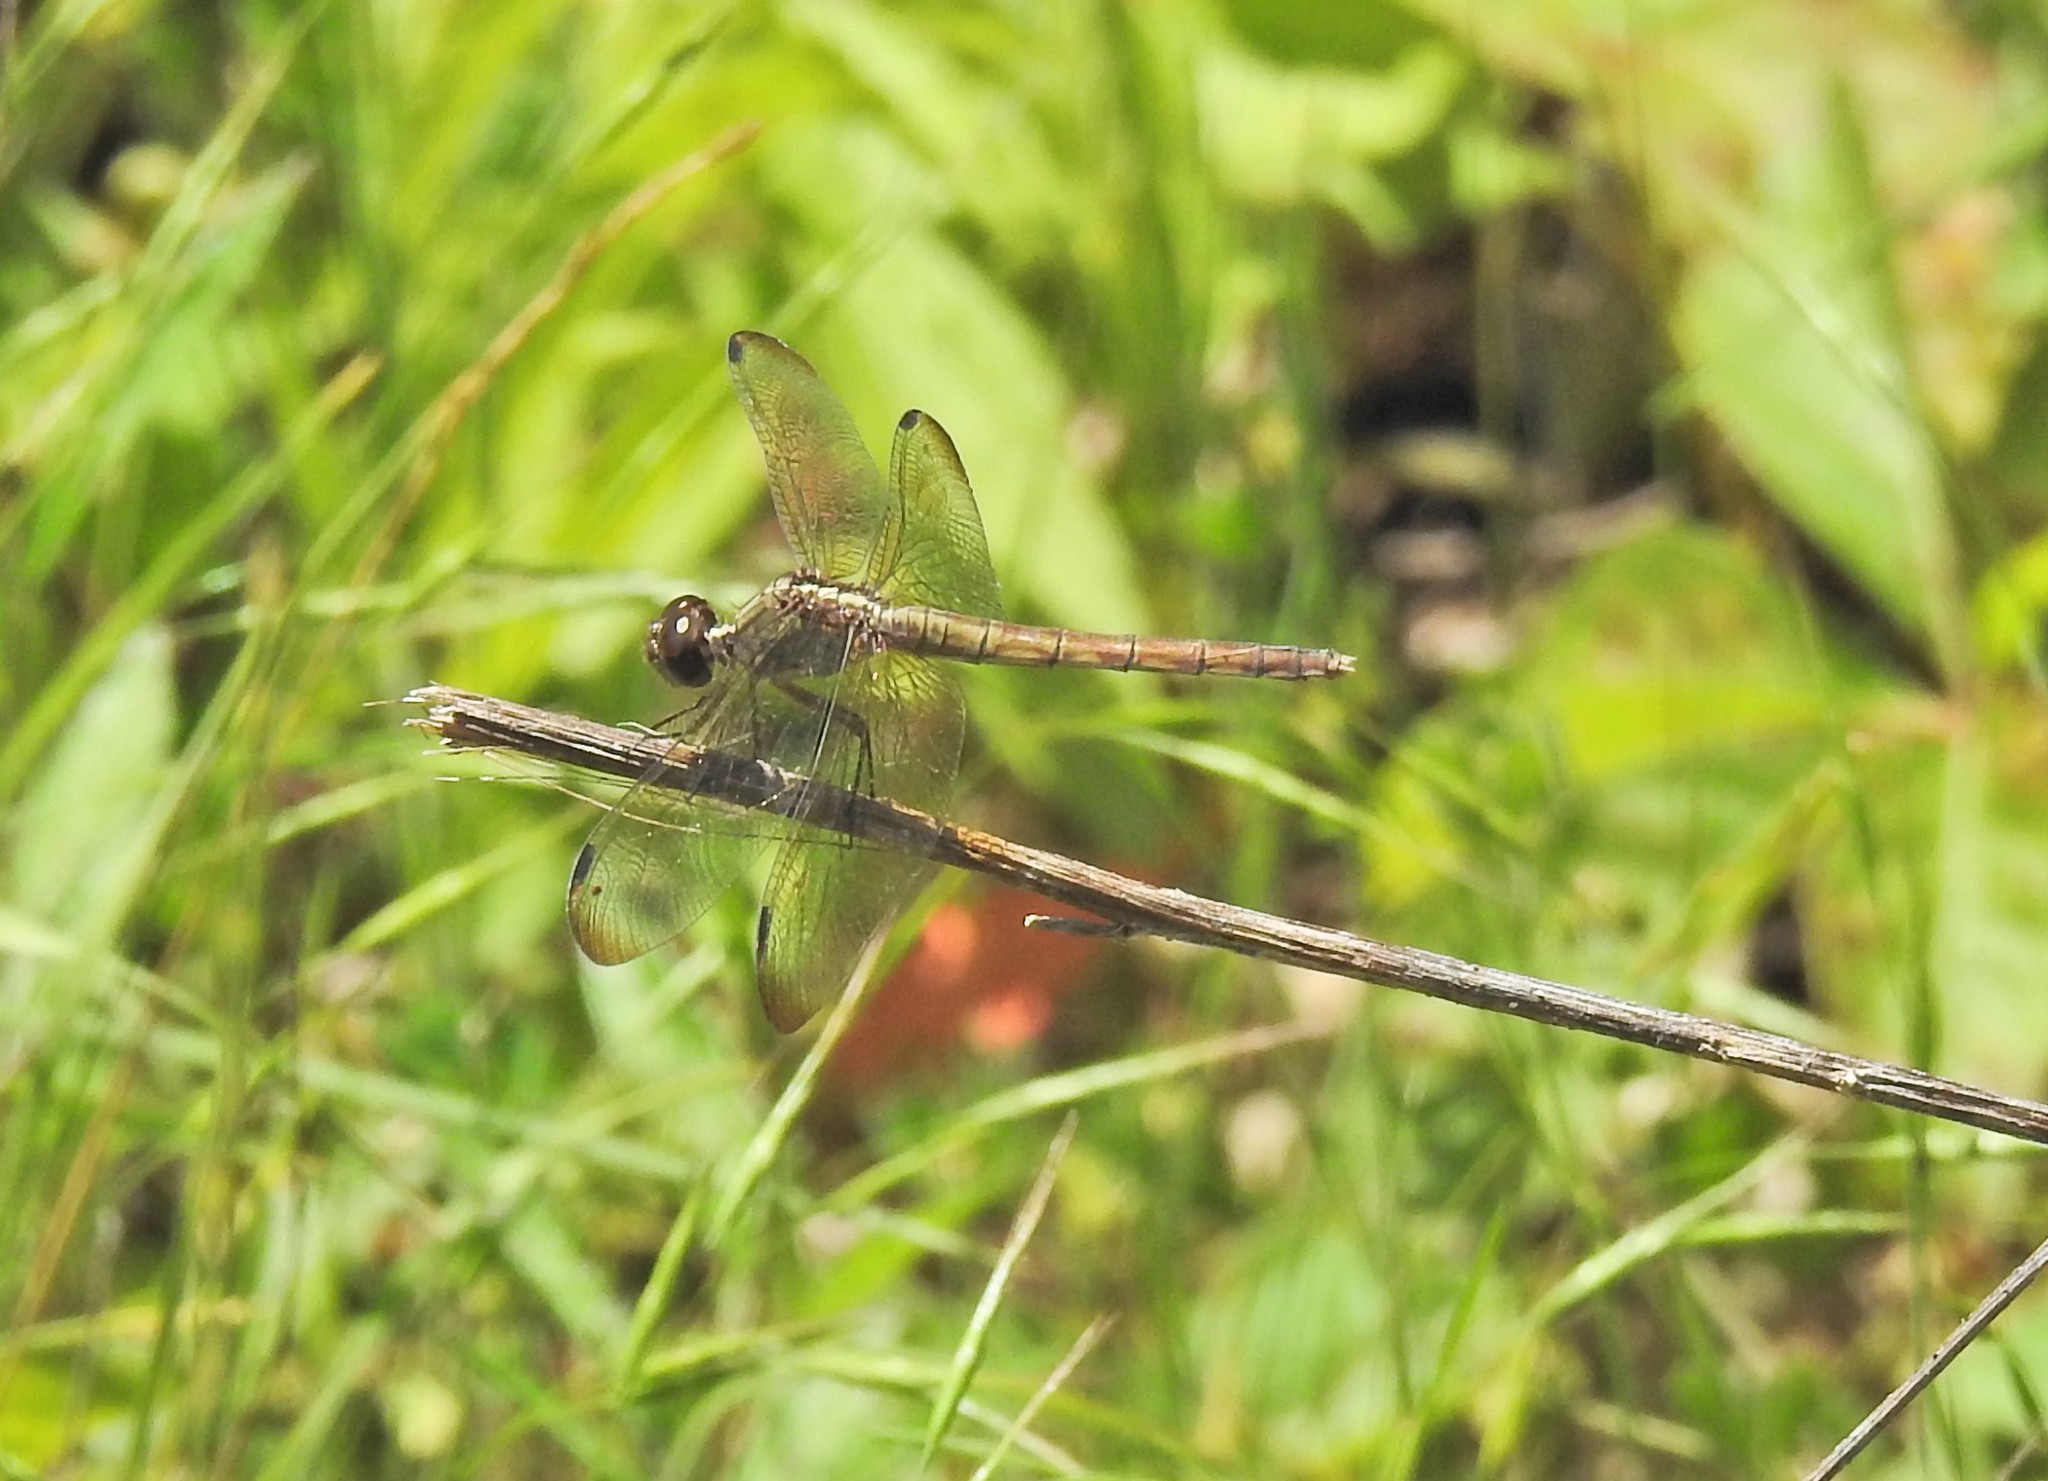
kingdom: Animalia
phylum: Arthropoda
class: Insecta
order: Odonata
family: Libellulidae
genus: Erythrodiplax
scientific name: Erythrodiplax umbrata
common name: Band-winged dragonlet
